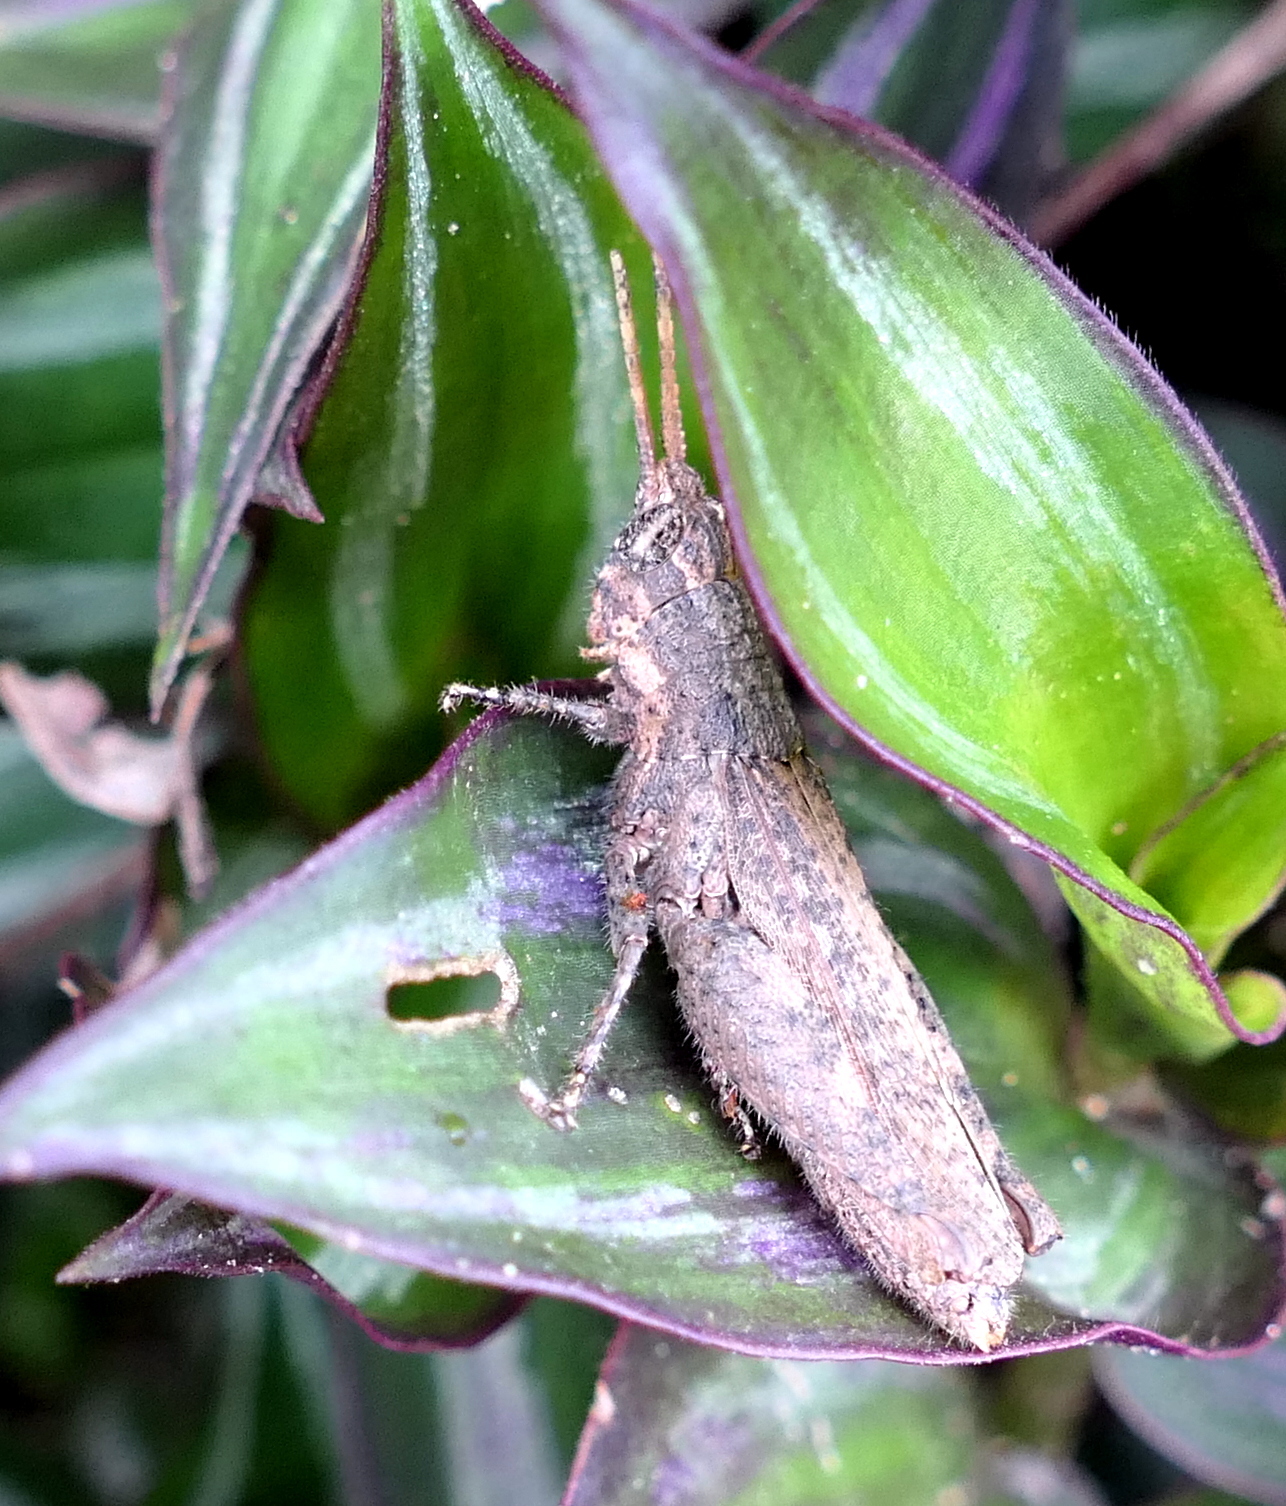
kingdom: Animalia
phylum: Arthropoda
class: Insecta
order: Orthoptera
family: Acrididae
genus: Vilerna
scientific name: Vilerna rugulosa
